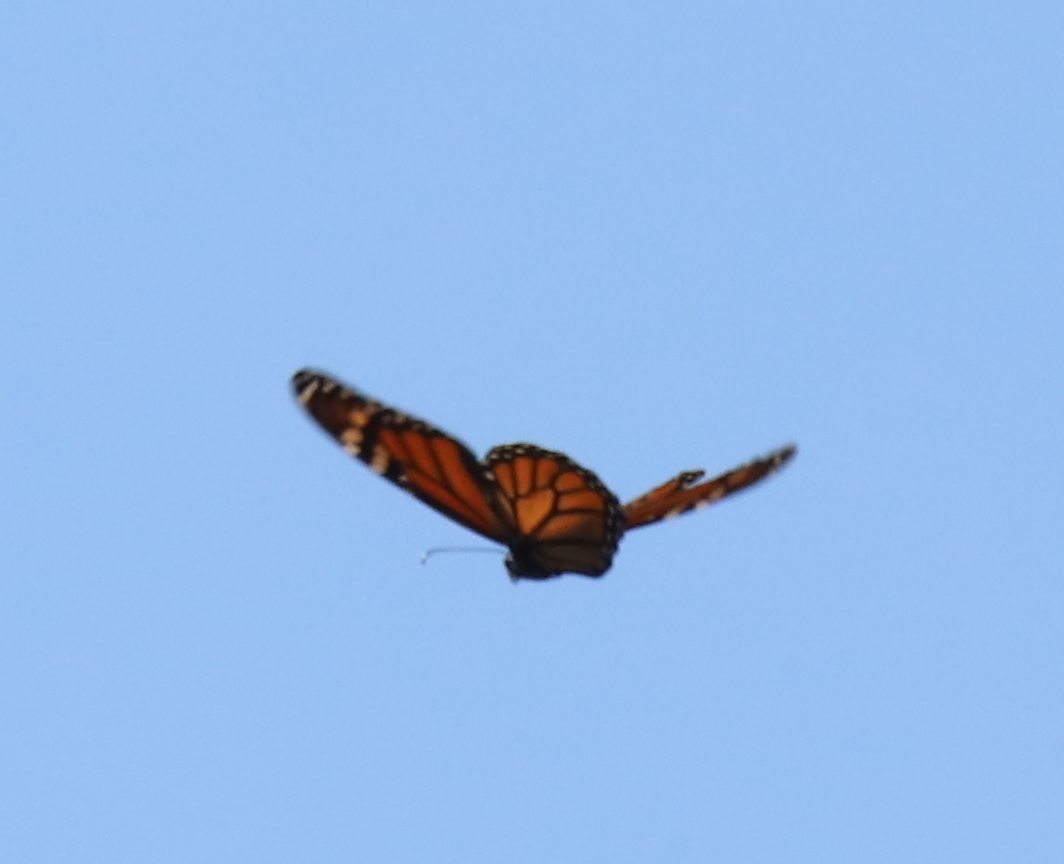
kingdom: Animalia
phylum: Arthropoda
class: Insecta
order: Lepidoptera
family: Nymphalidae
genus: Danaus
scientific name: Danaus plexippus
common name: Monarch
